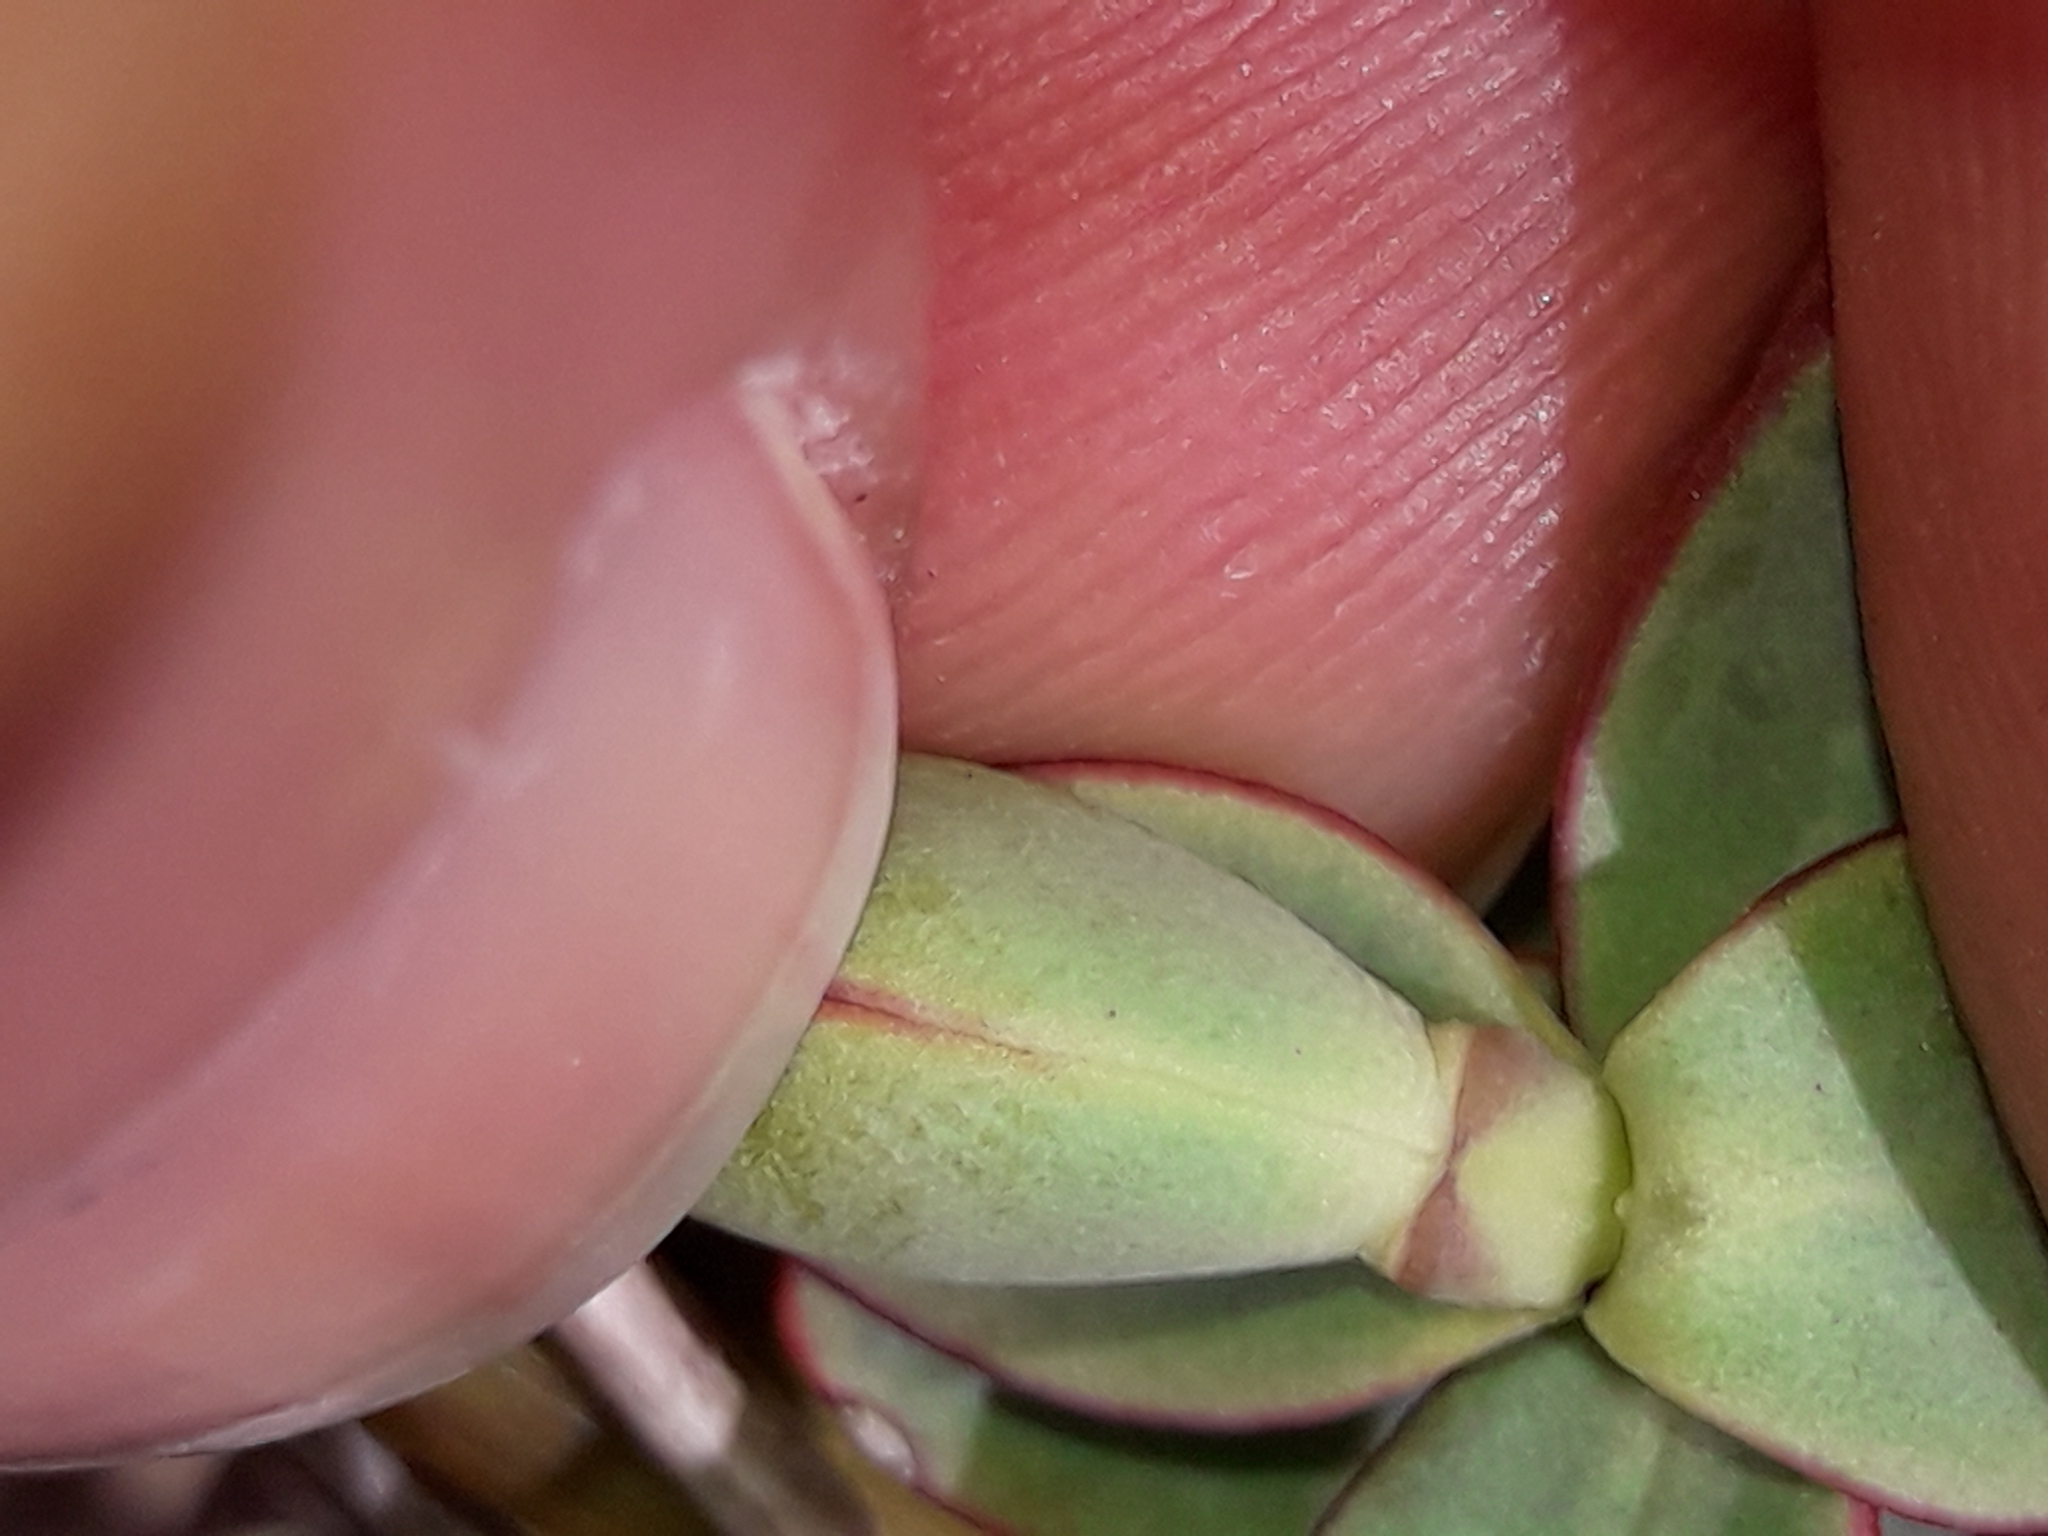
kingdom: Plantae
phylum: Tracheophyta
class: Magnoliopsida
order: Lamiales
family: Plantaginaceae
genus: Veronica
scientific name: Veronica pinguifolia
